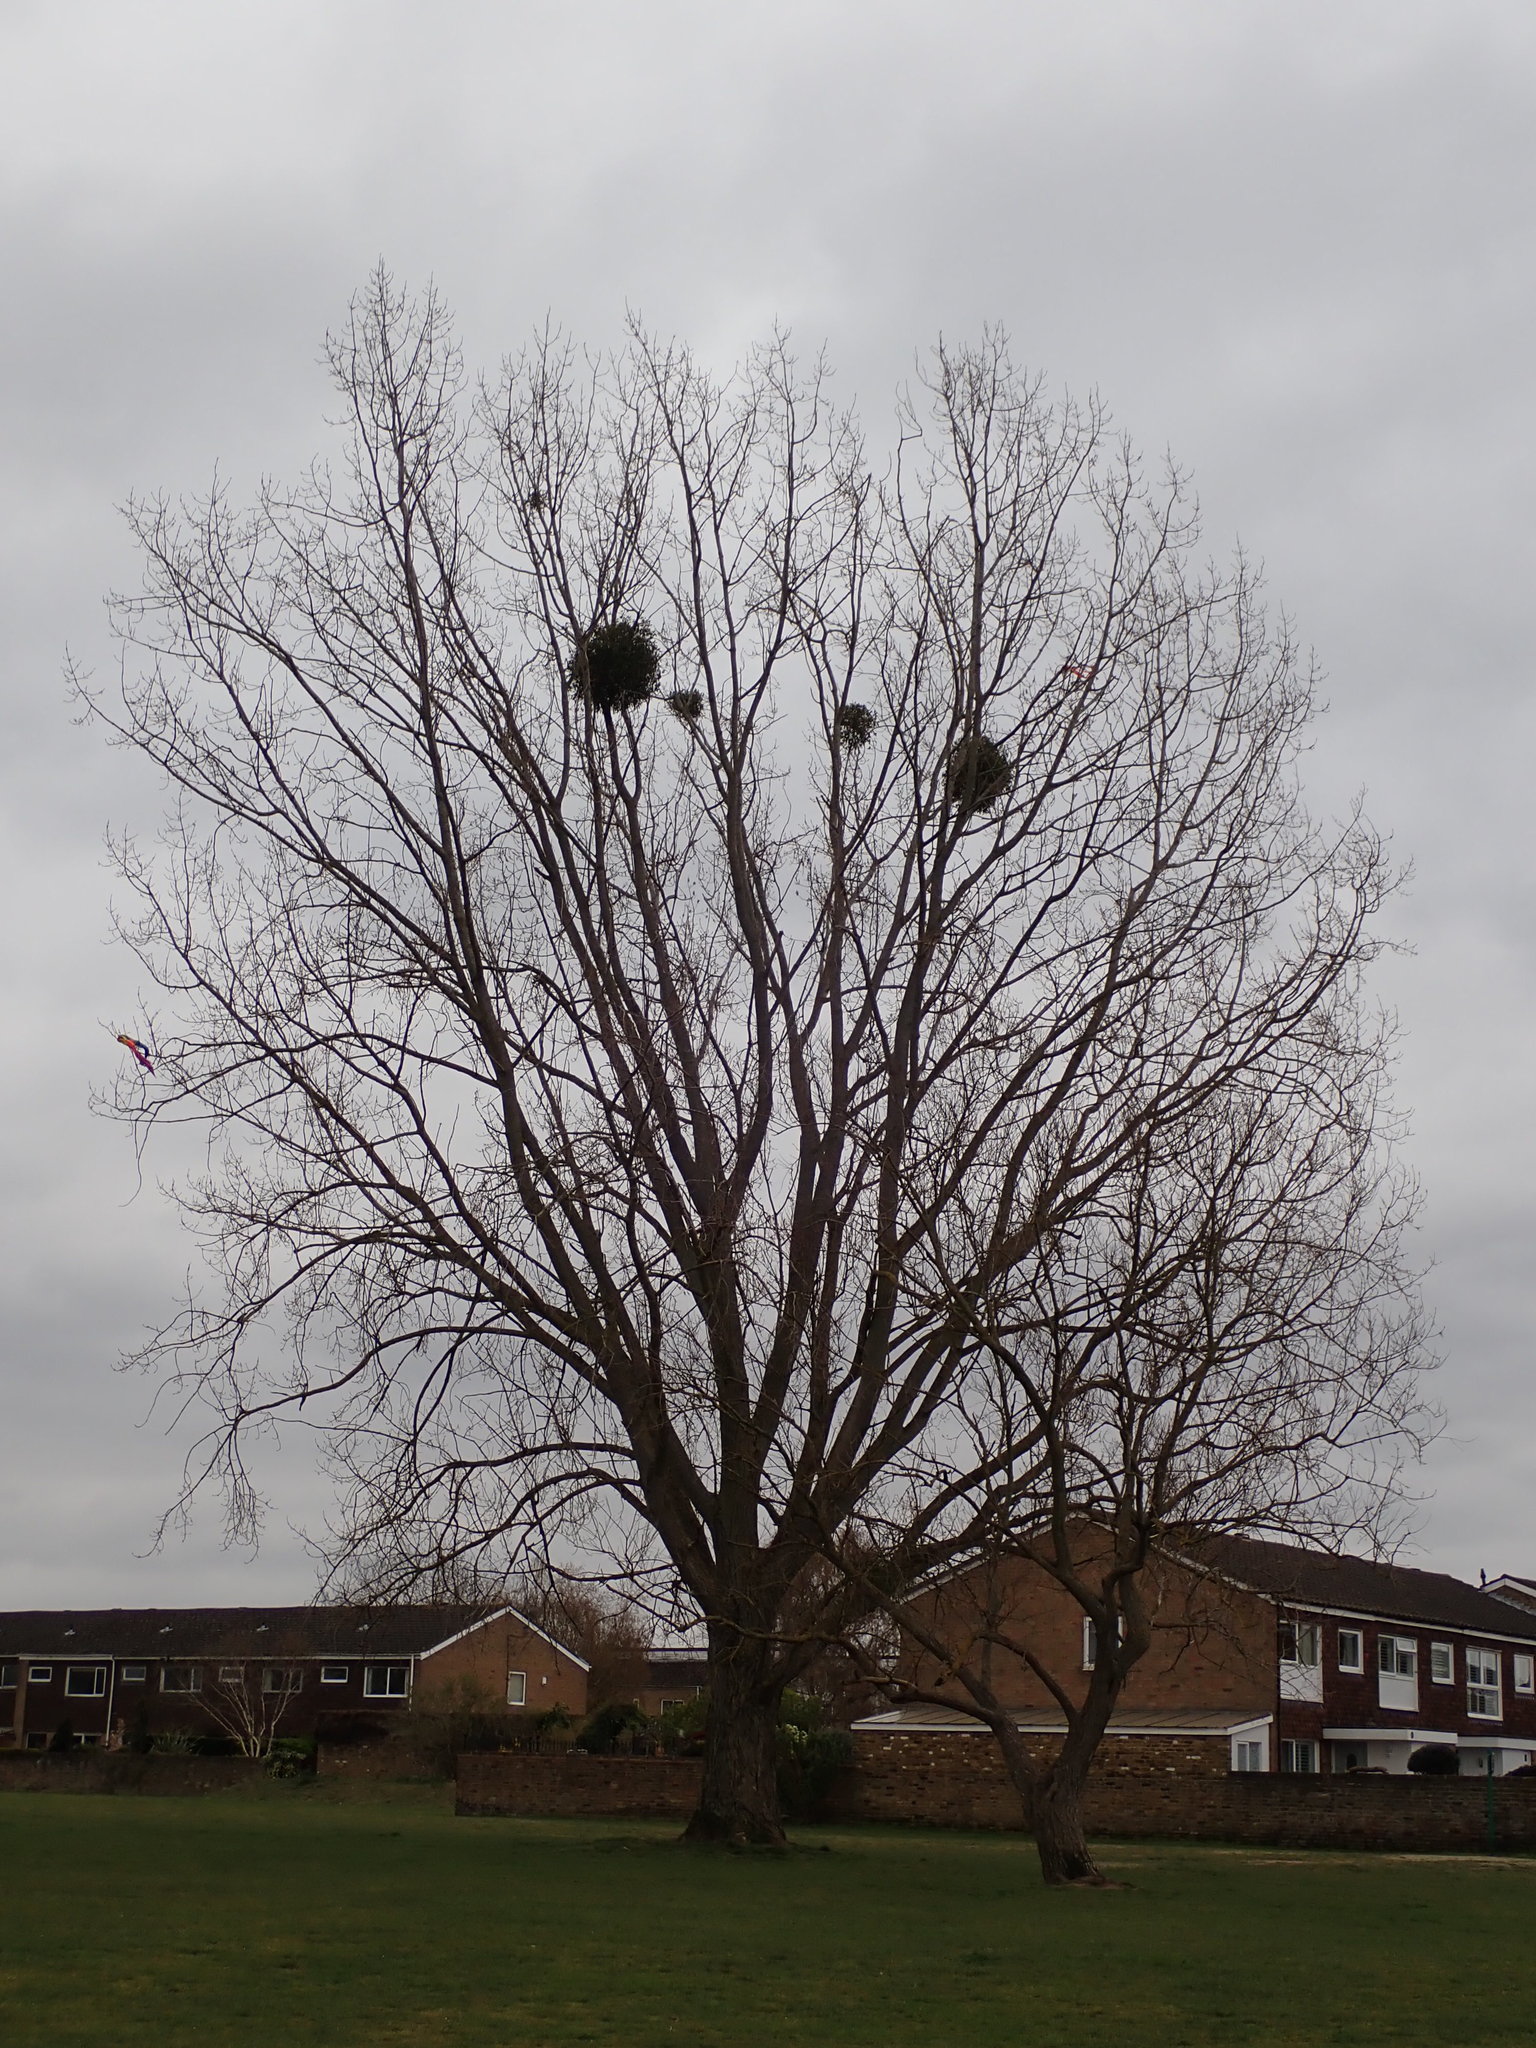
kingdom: Plantae
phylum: Tracheophyta
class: Magnoliopsida
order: Santalales
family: Viscaceae
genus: Viscum
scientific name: Viscum album
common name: Mistletoe
